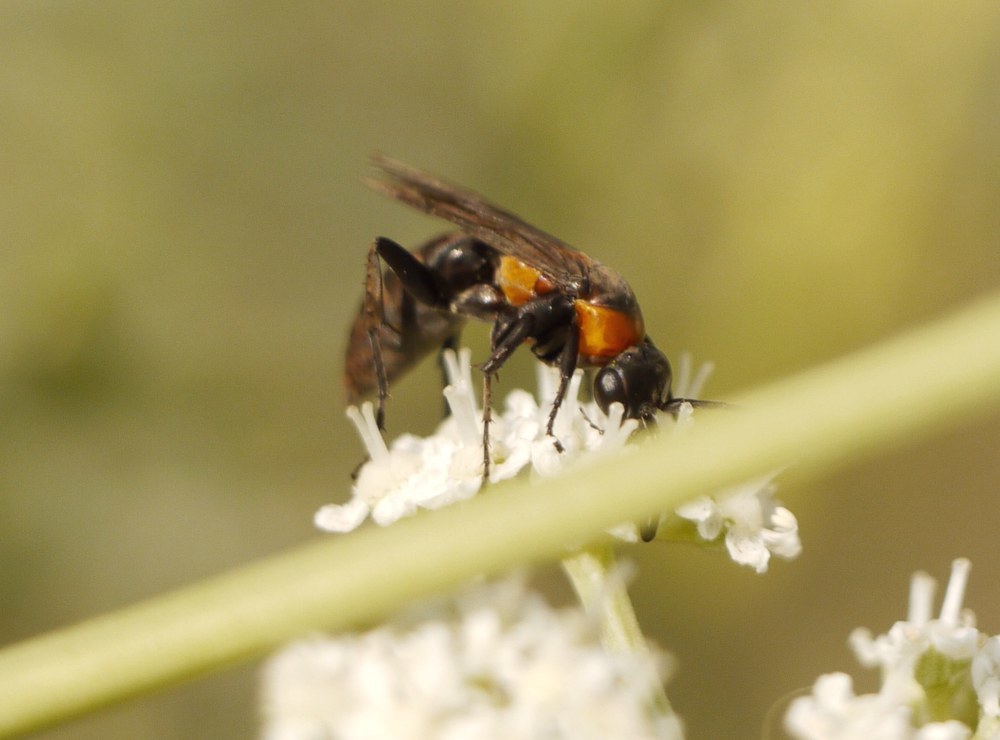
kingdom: Animalia
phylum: Arthropoda
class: Insecta
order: Hymenoptera
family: Pompilidae
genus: Eoferreola
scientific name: Eoferreola manticata
